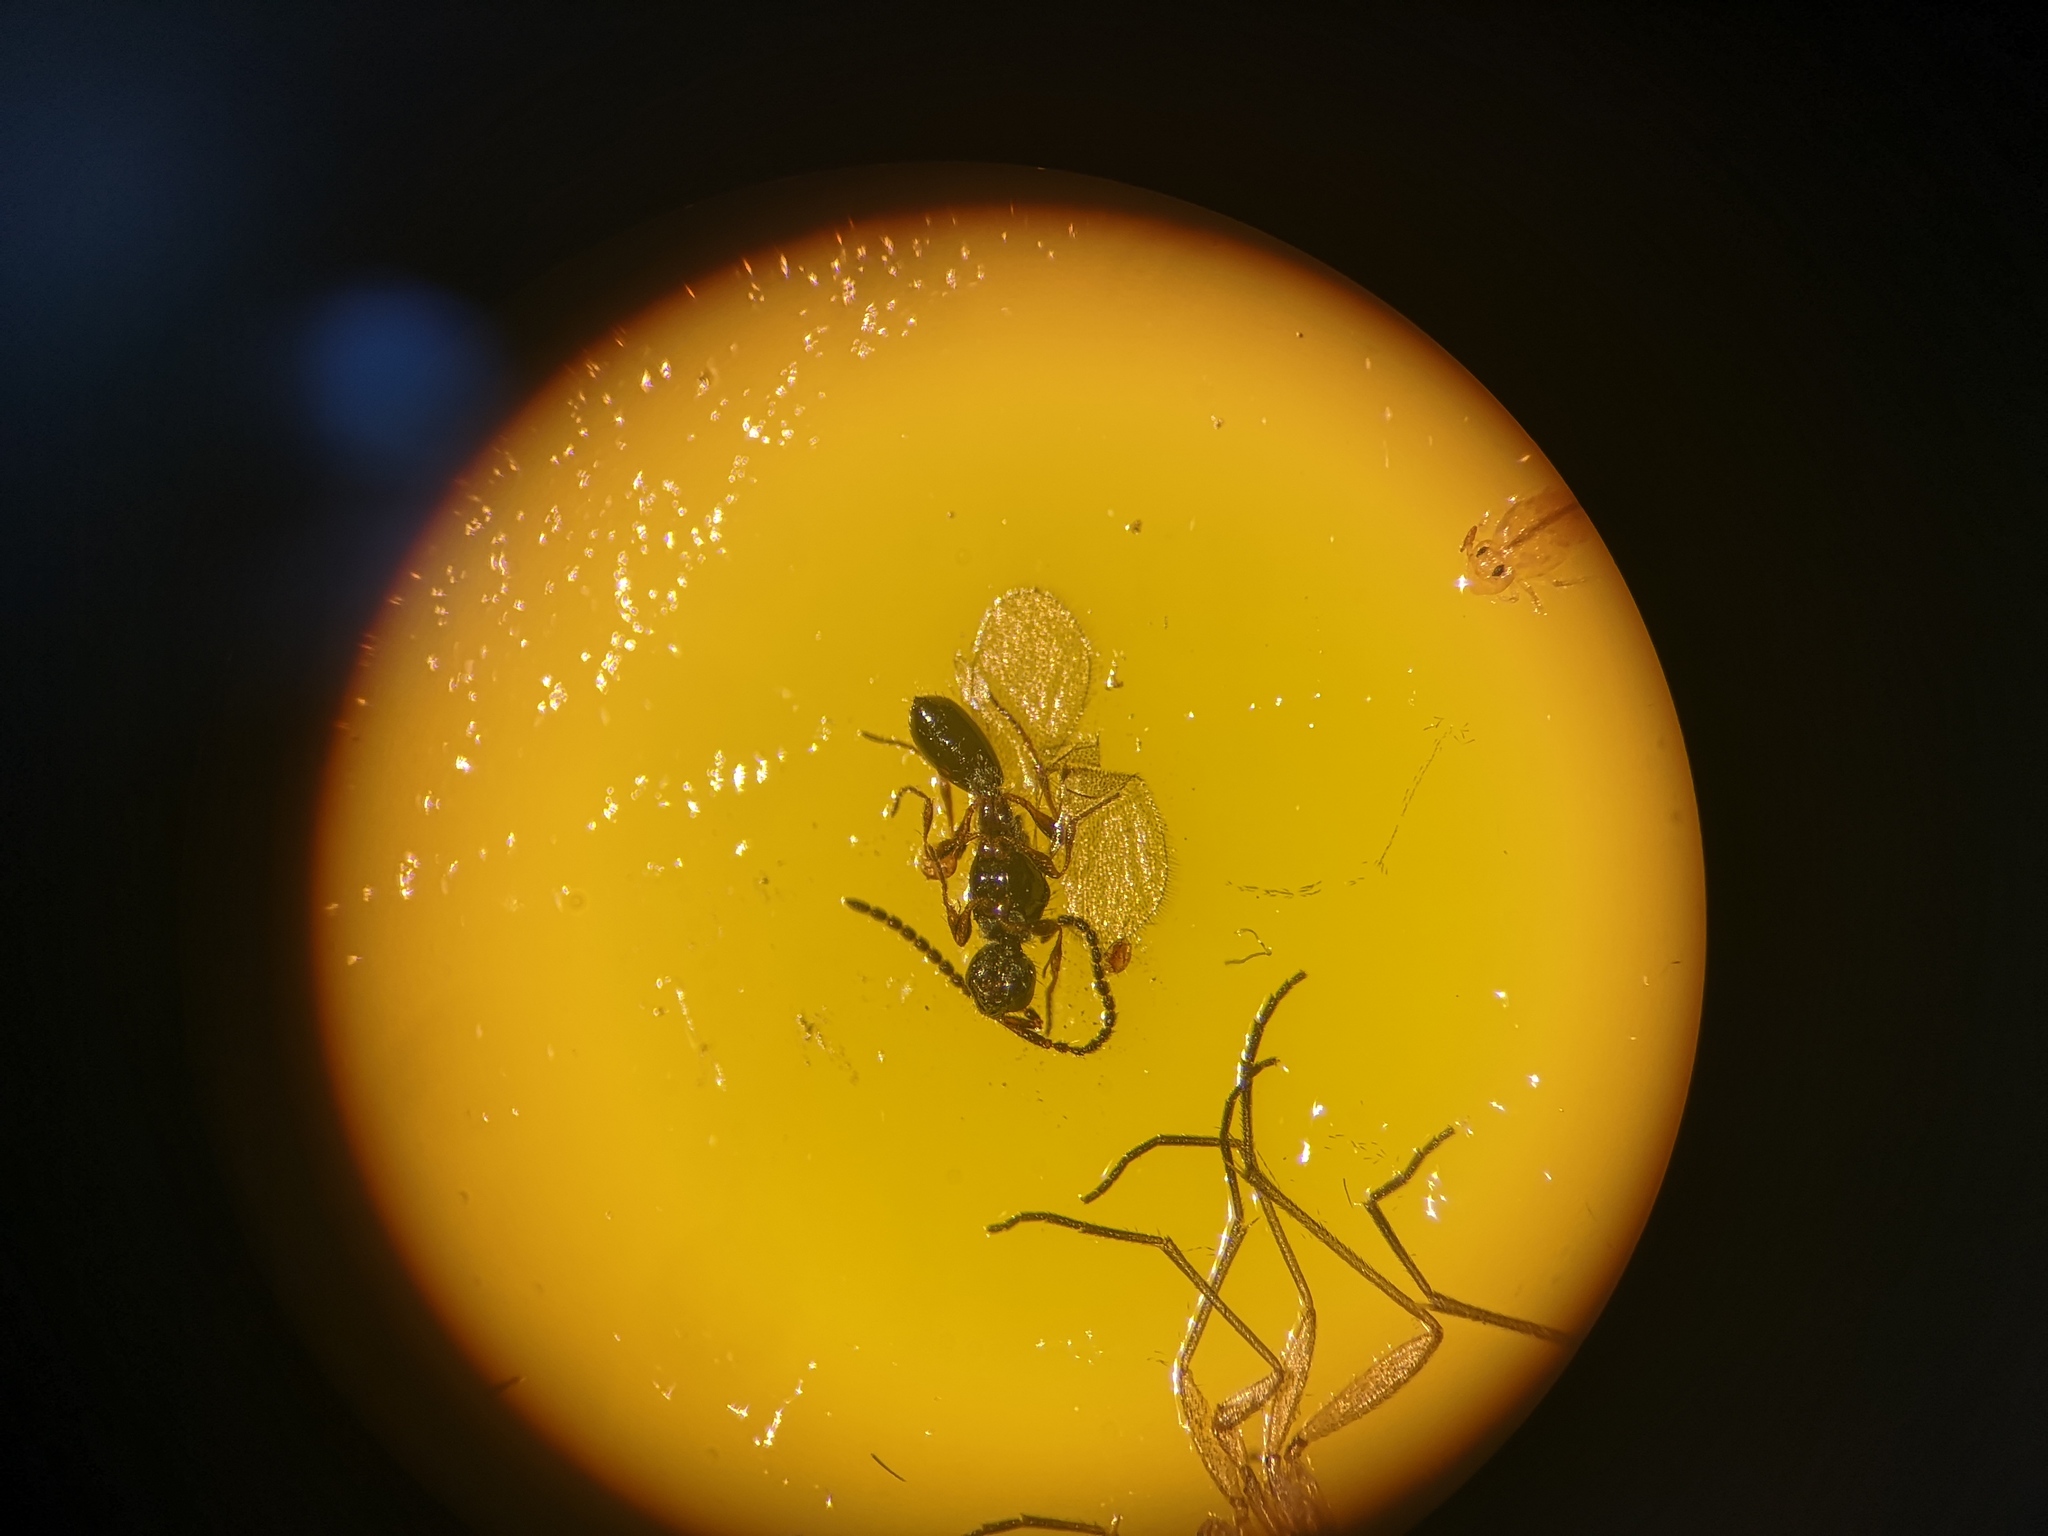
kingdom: Animalia
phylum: Arthropoda
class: Insecta
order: Hymenoptera
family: Diapriidae
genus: Basalys
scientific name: Basalys tritoma
